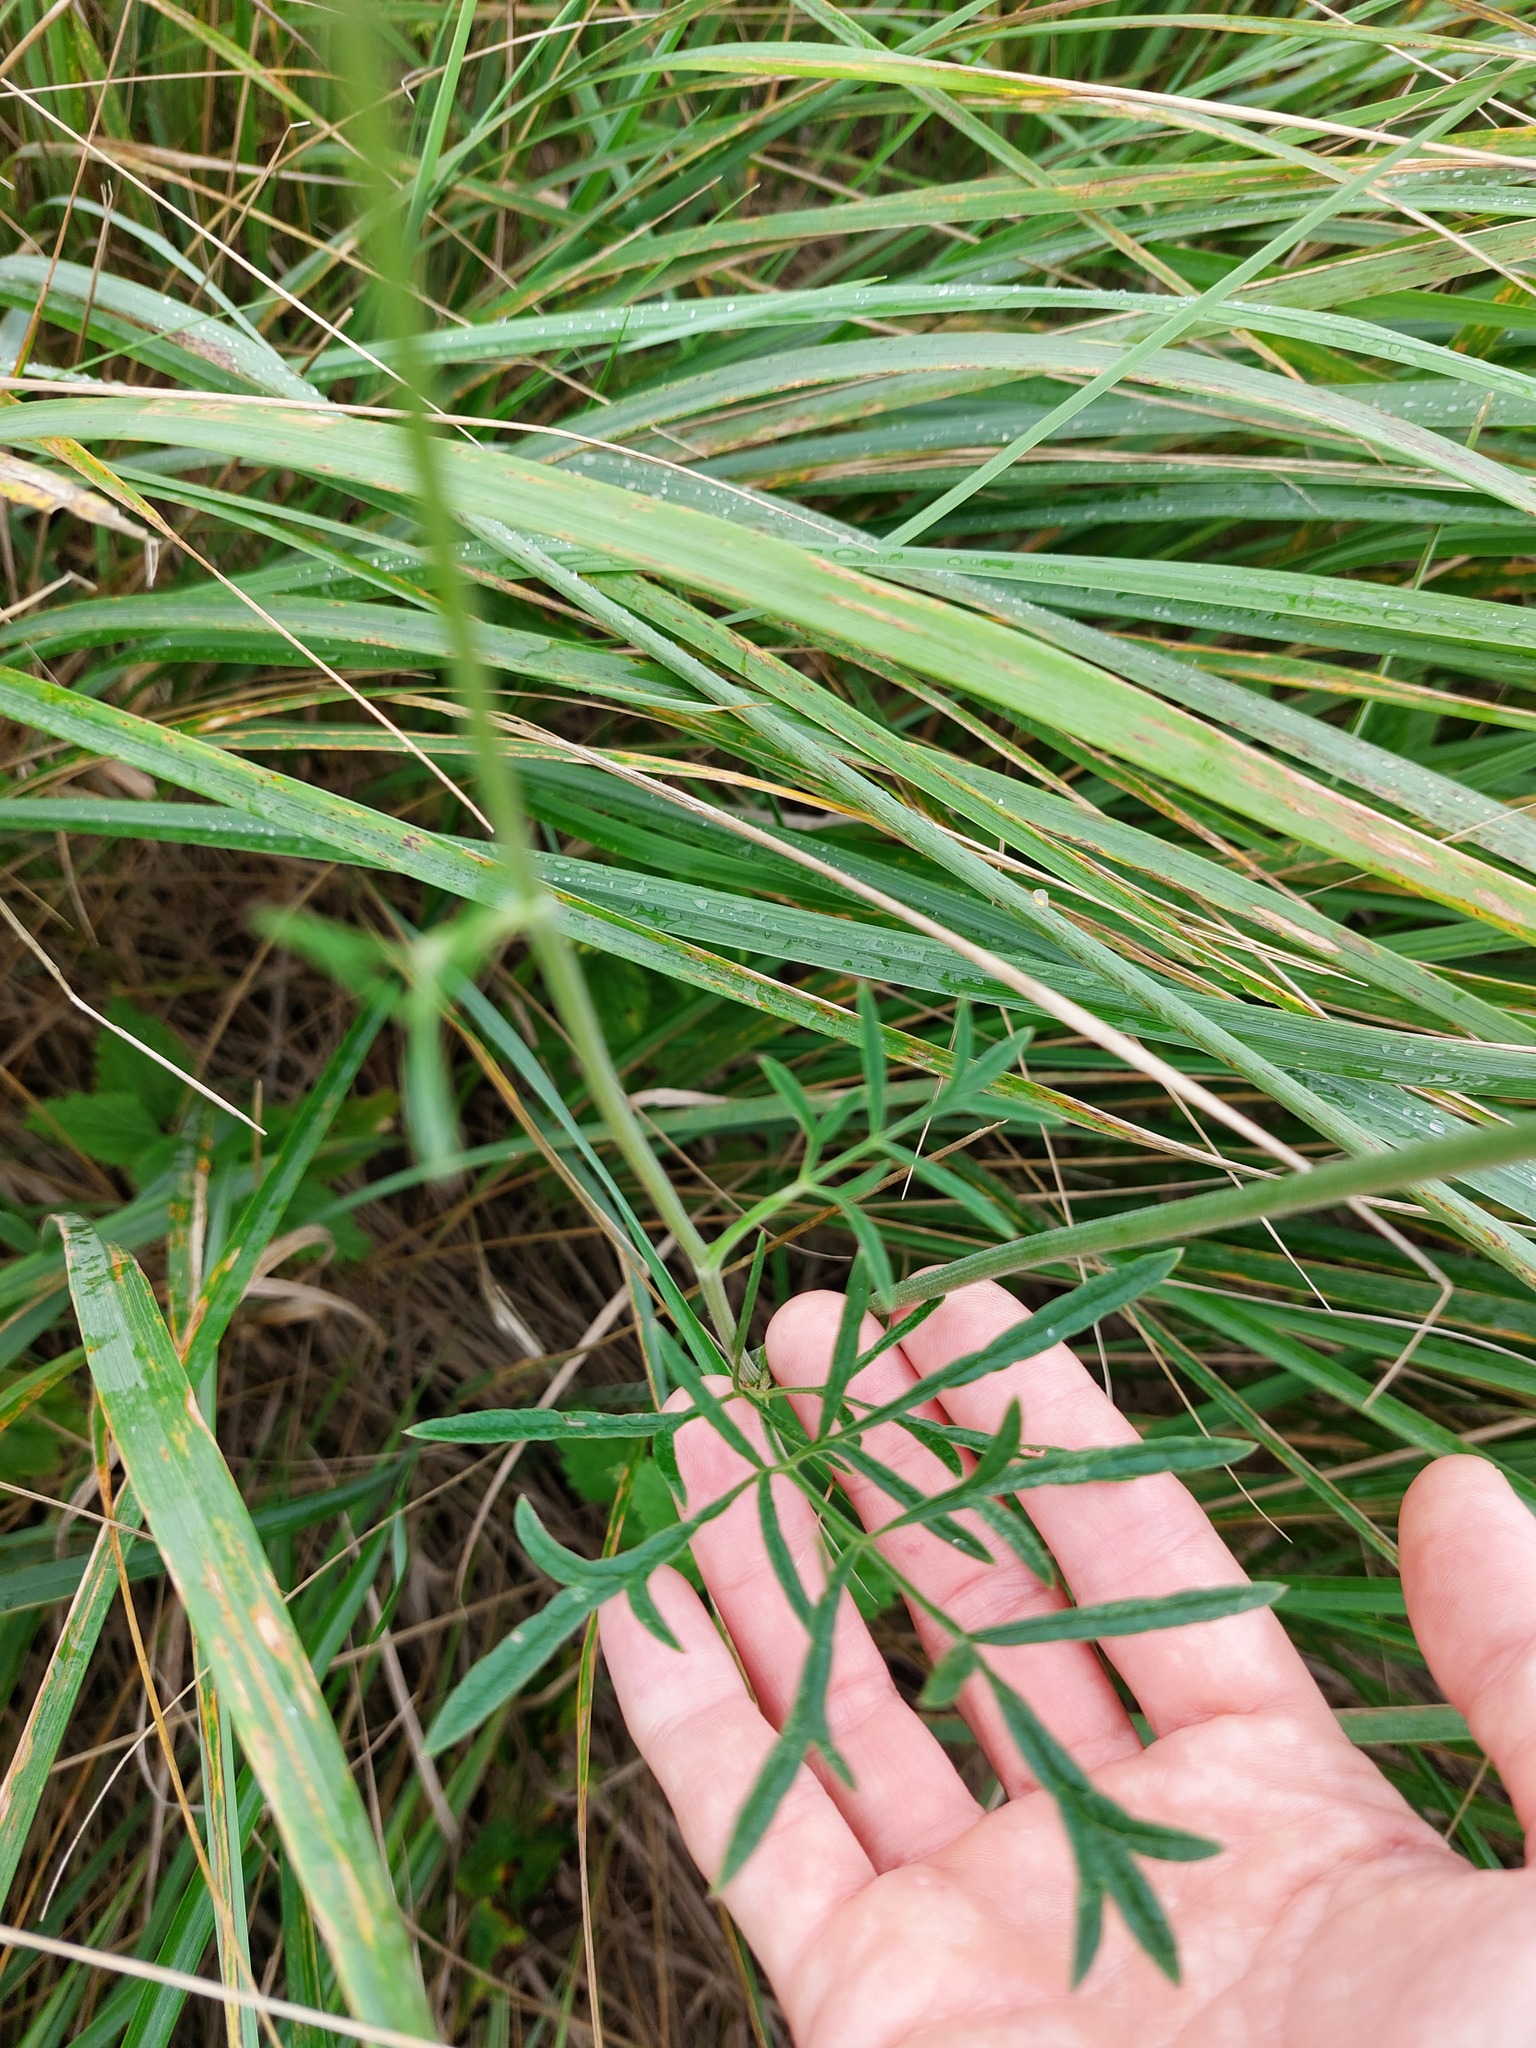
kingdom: Plantae
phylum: Tracheophyta
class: Magnoliopsida
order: Apiales
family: Apiaceae
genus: Pimpinella
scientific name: Pimpinella saxifraga
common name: Burnet-saxifrage
